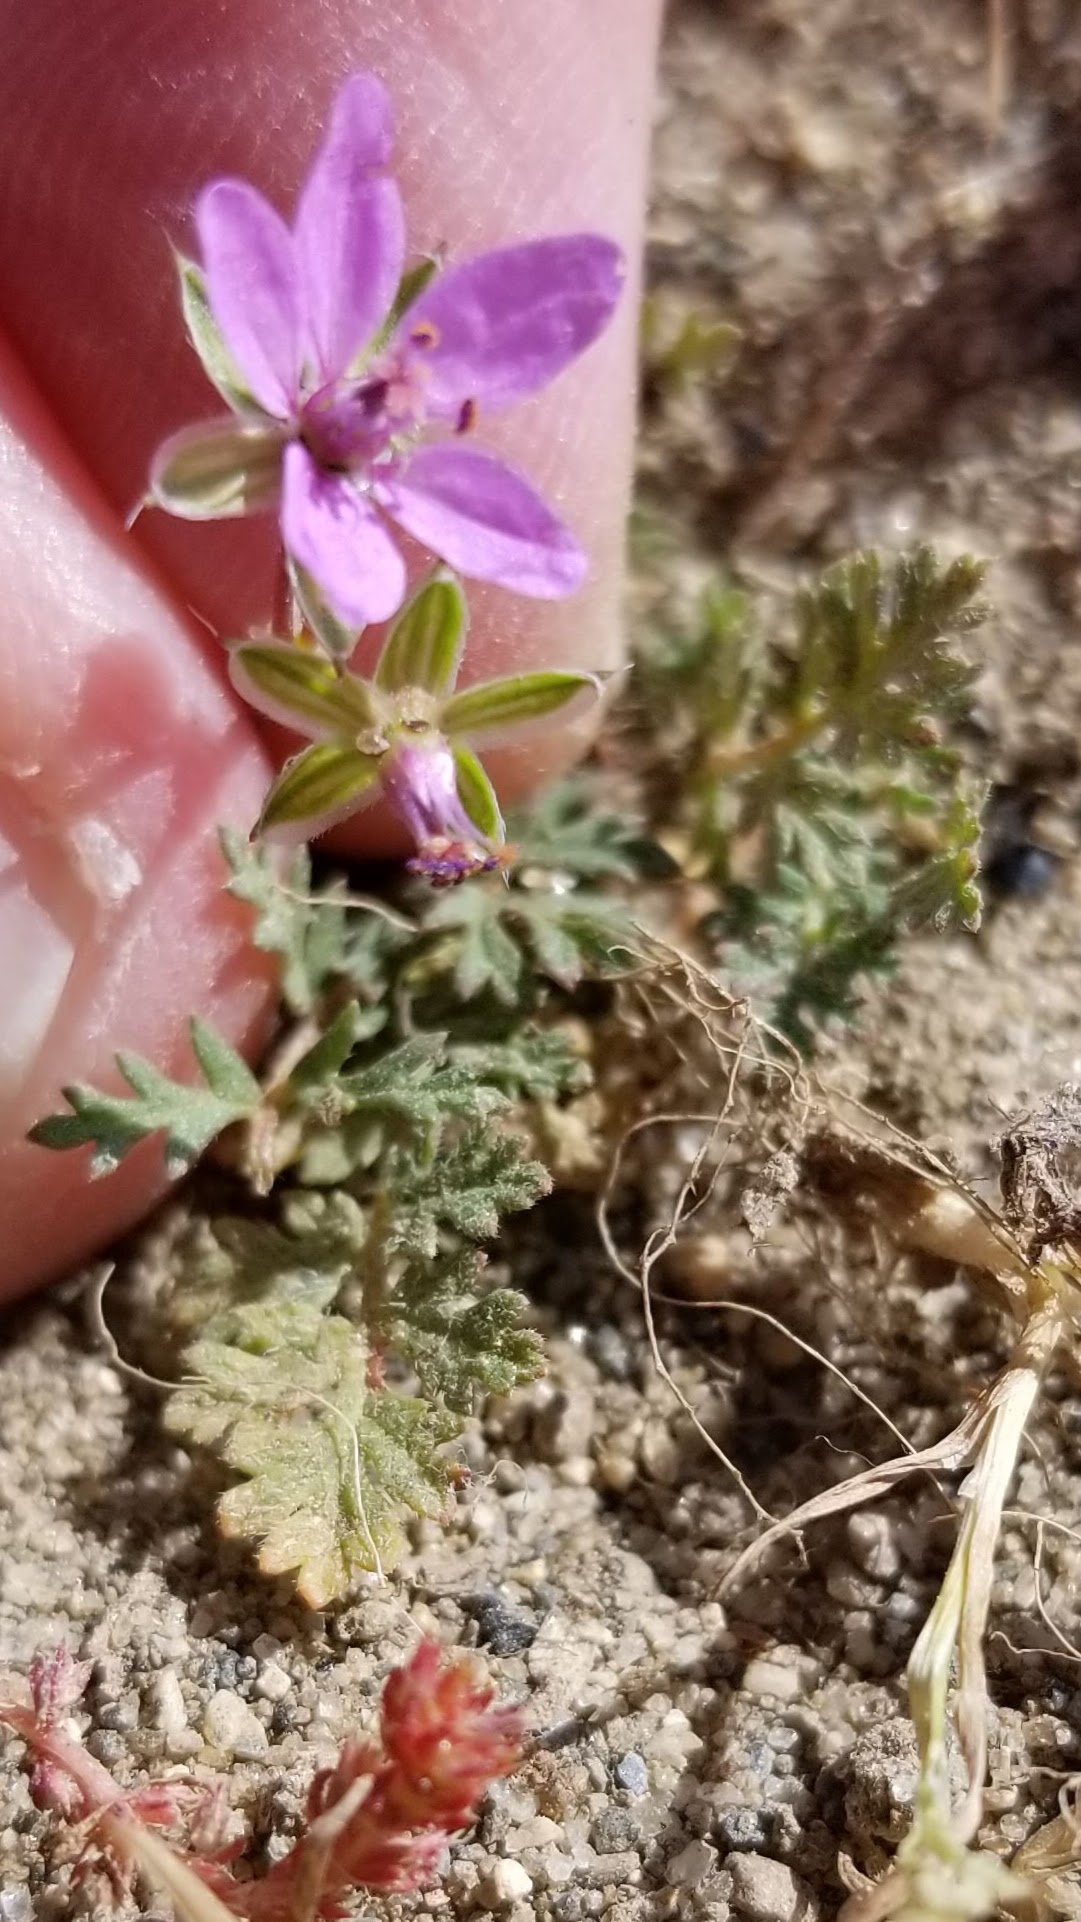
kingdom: Plantae
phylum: Tracheophyta
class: Magnoliopsida
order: Geraniales
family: Geraniaceae
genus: Erodium
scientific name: Erodium cicutarium
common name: Common stork's-bill
